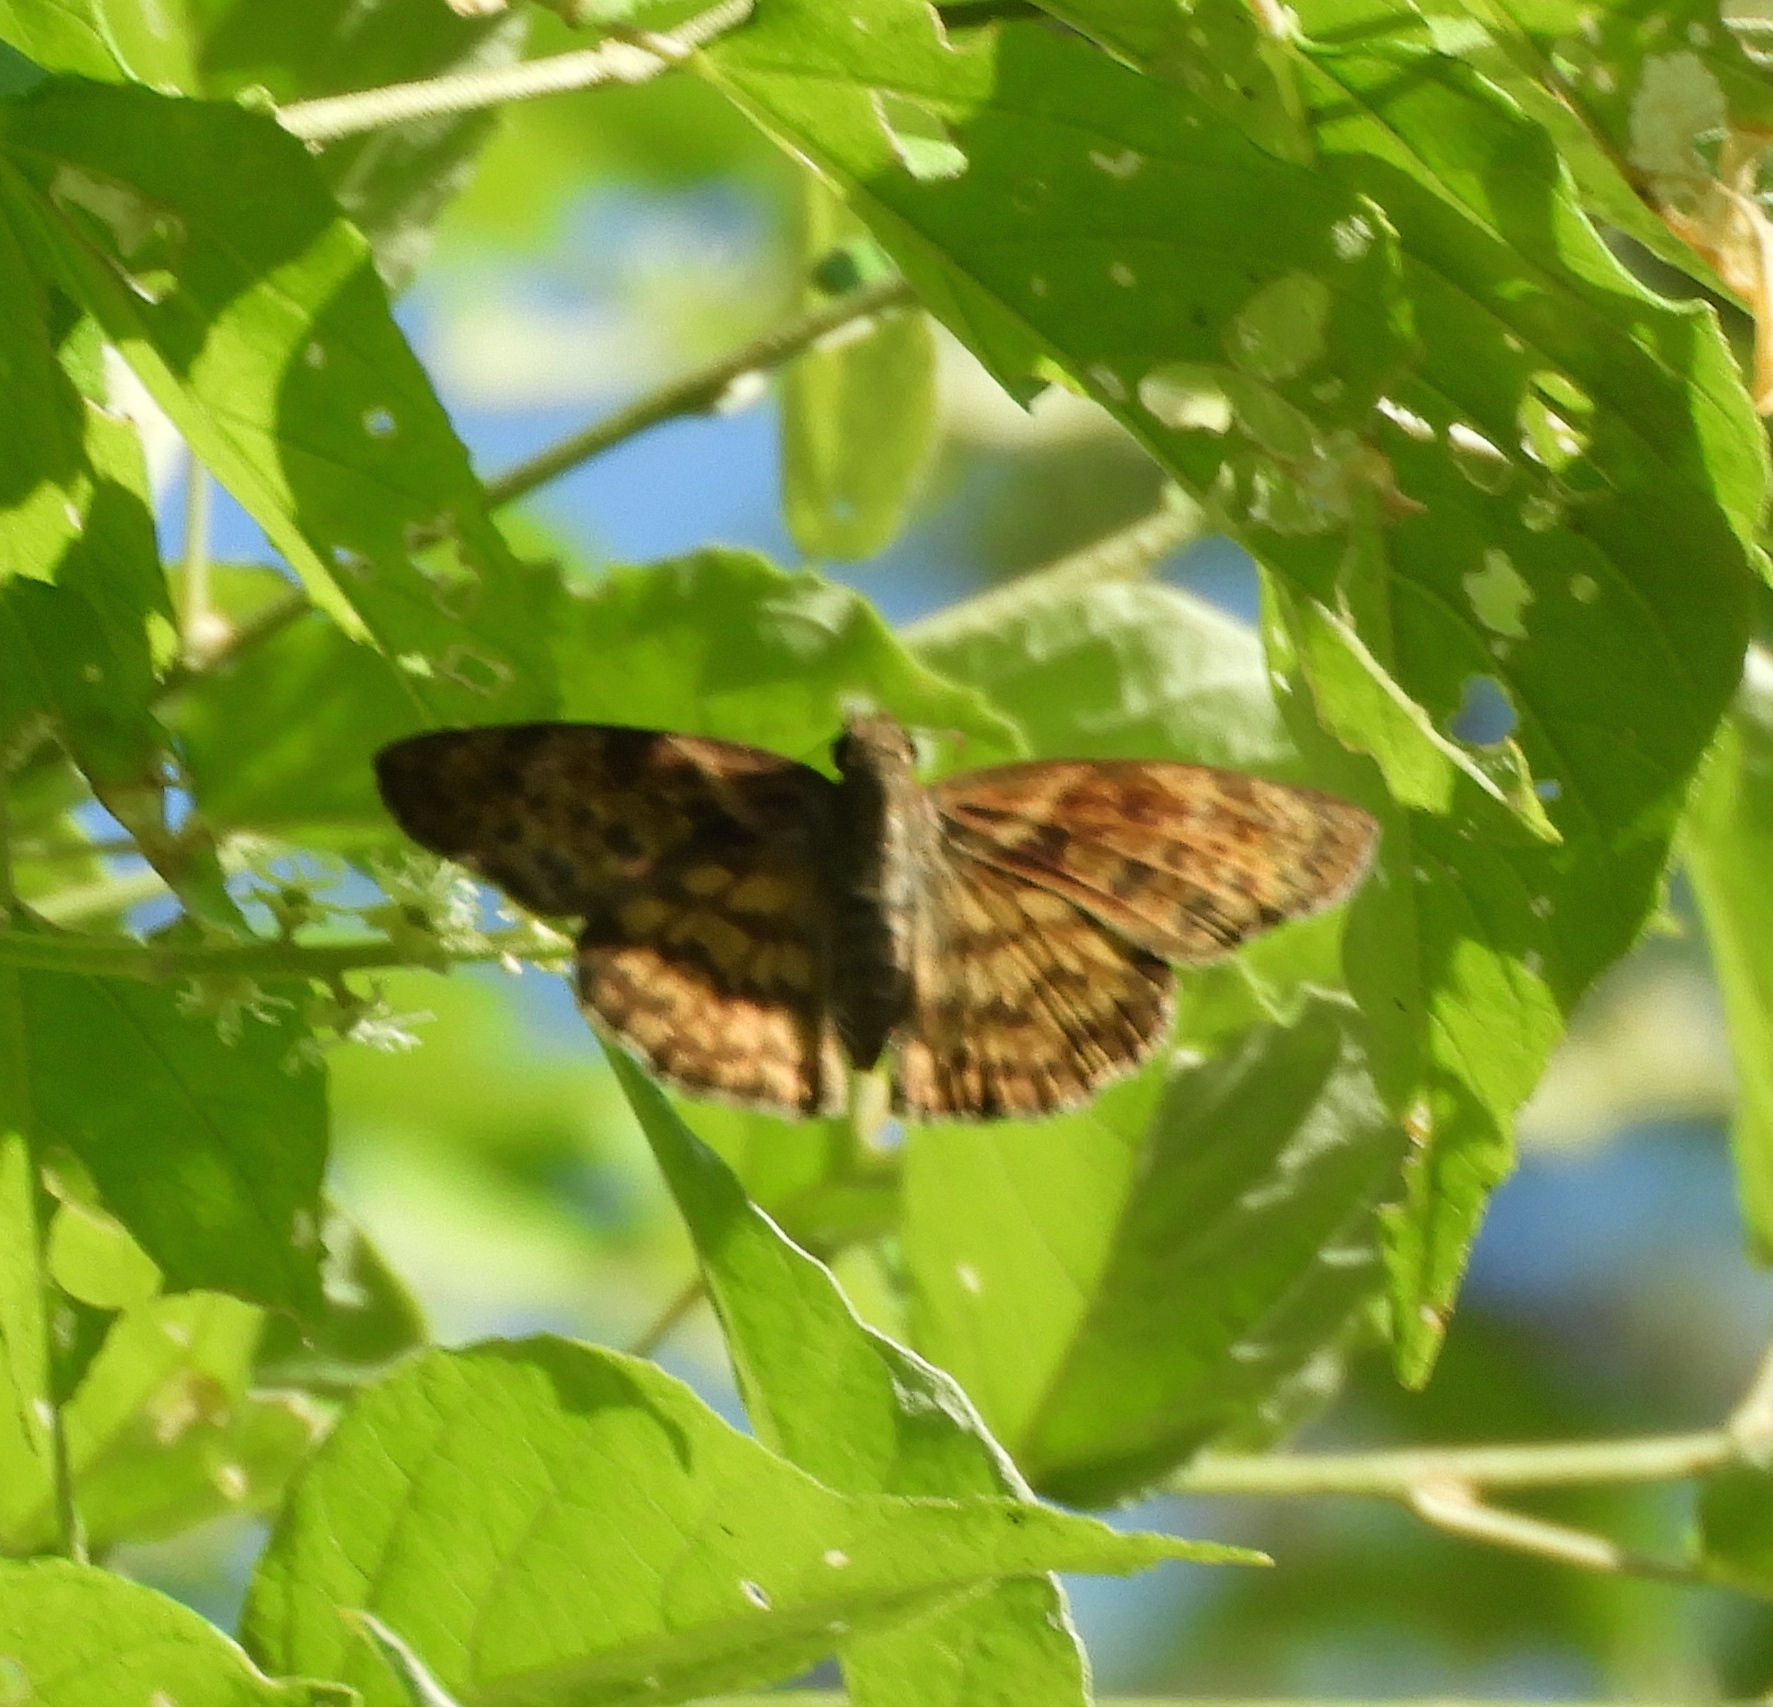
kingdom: Animalia
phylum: Arthropoda
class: Insecta
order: Lepidoptera
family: Hesperiidae
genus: Timochares
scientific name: Timochares ruptifasciata
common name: Brown-banded skipper
